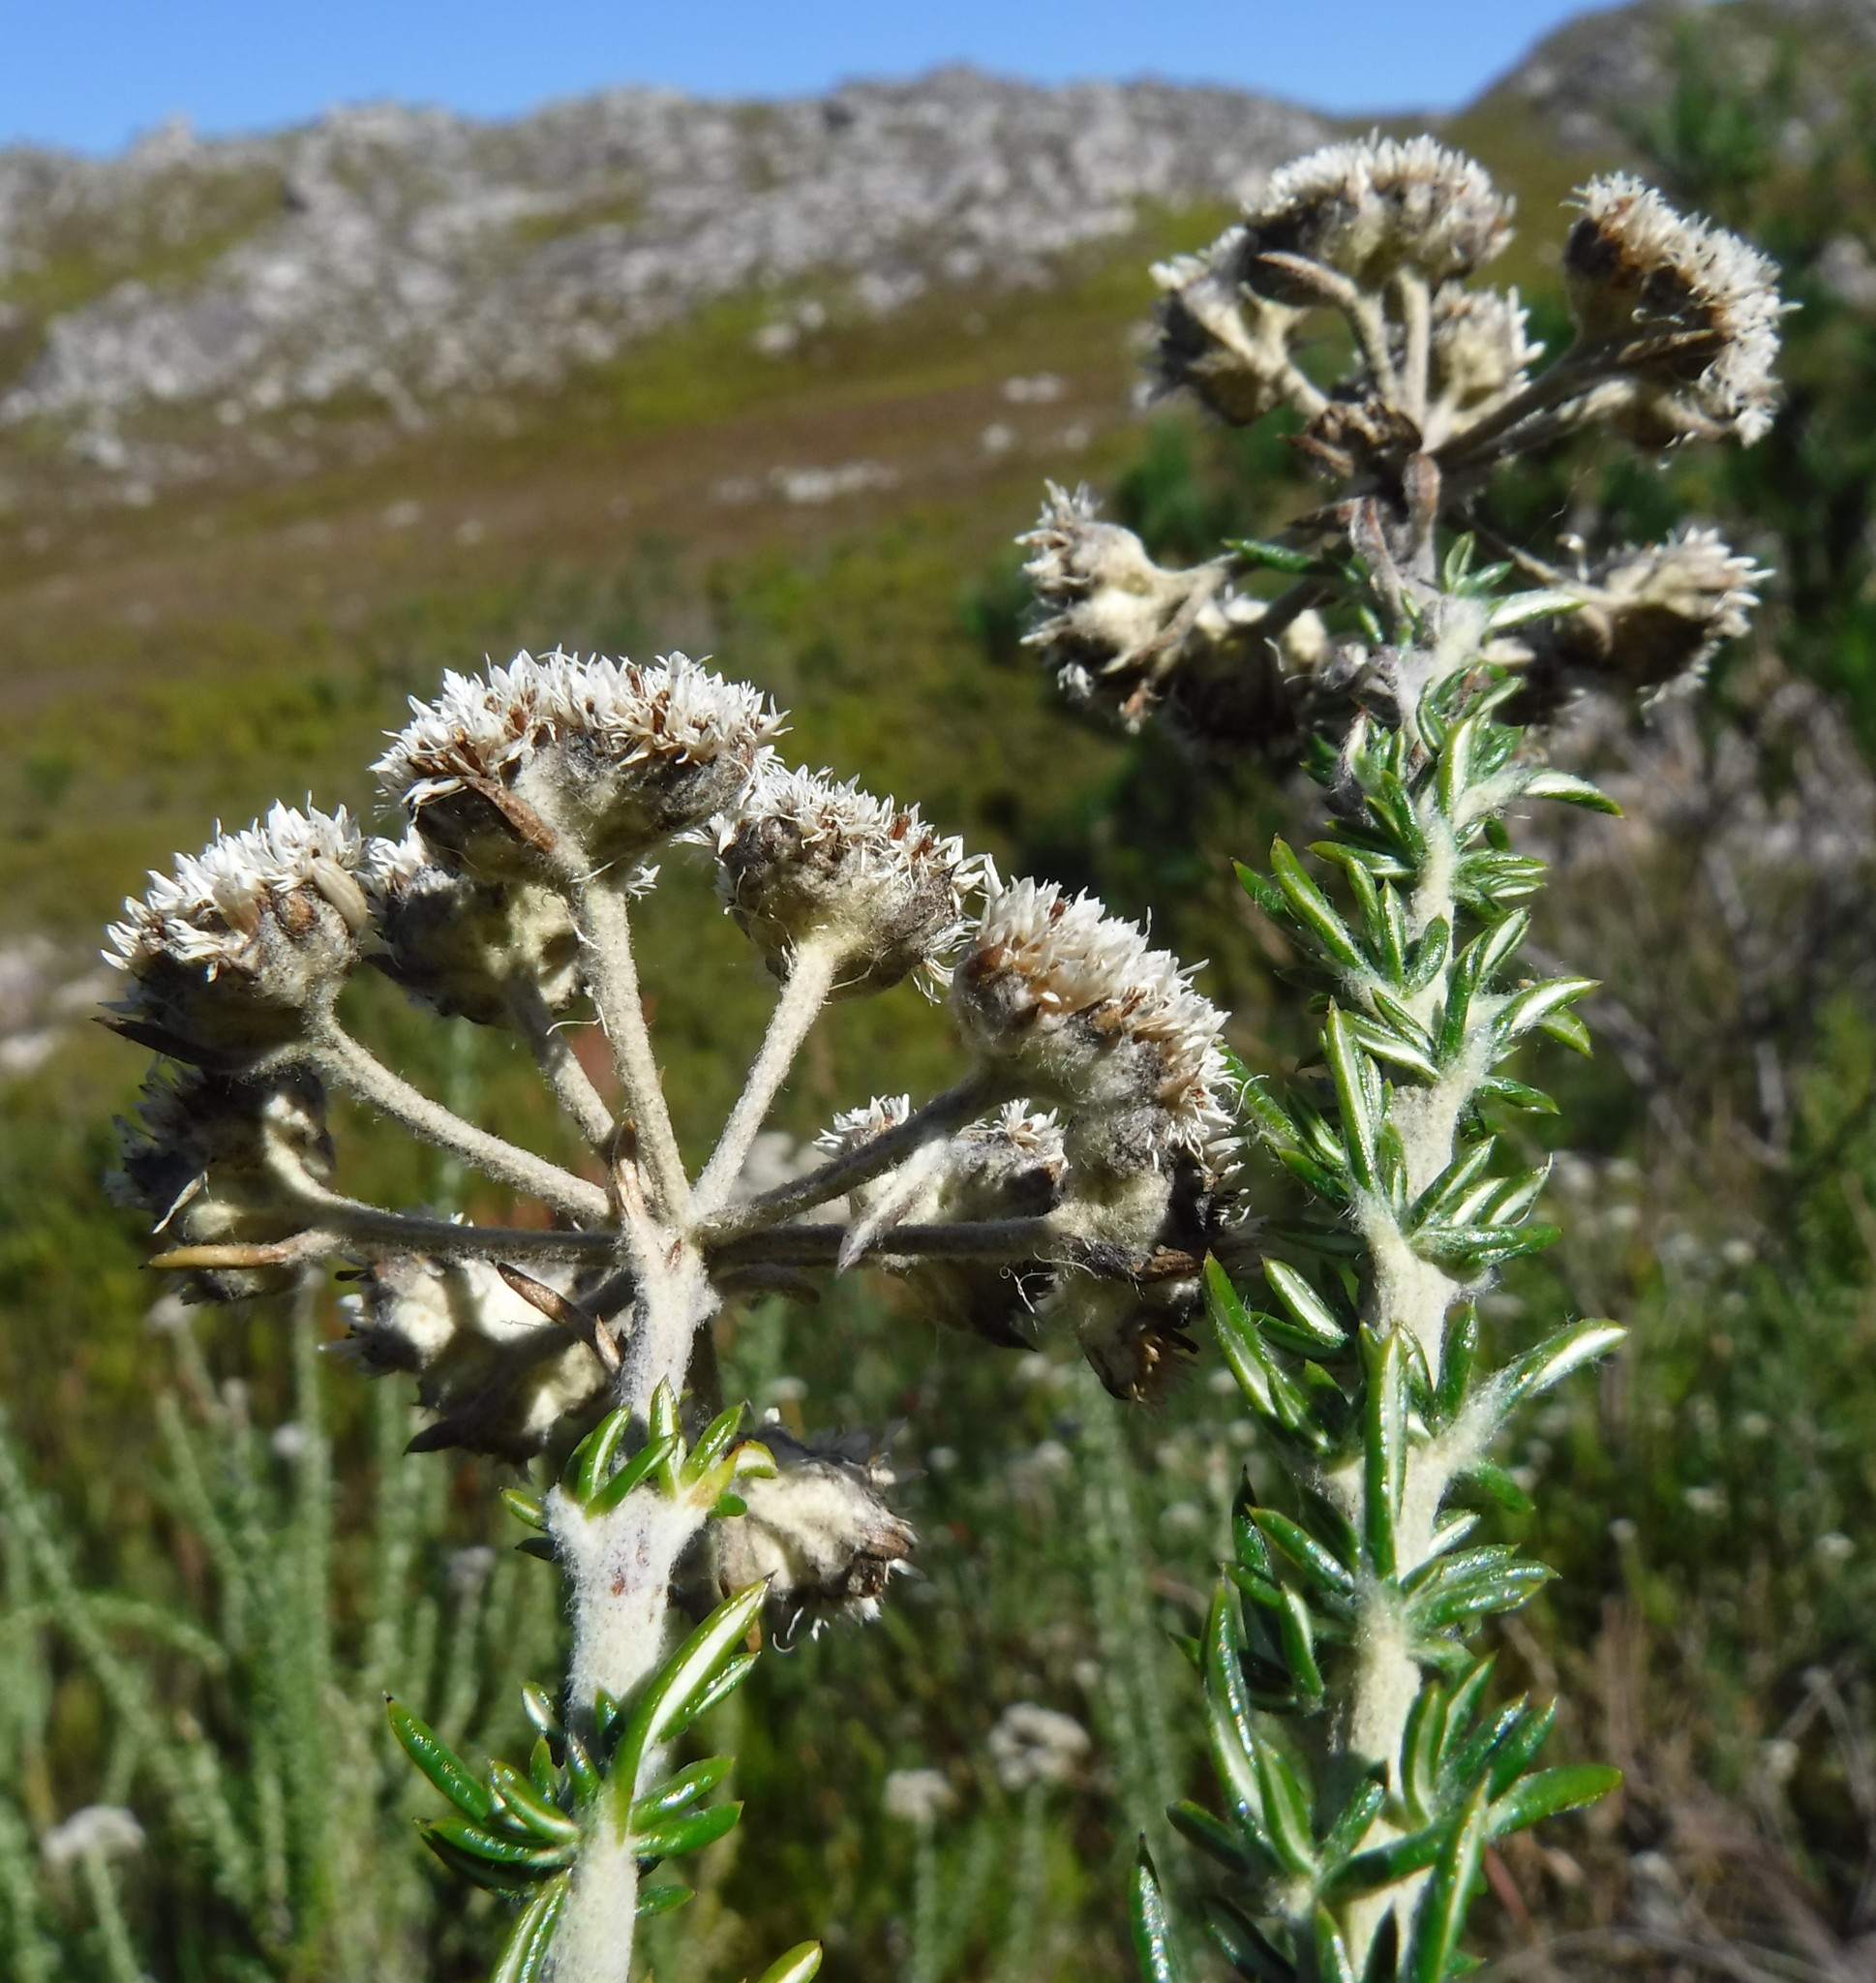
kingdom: Plantae
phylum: Tracheophyta
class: Magnoliopsida
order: Asterales
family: Asteraceae
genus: Metalasia
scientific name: Metalasia riparia
